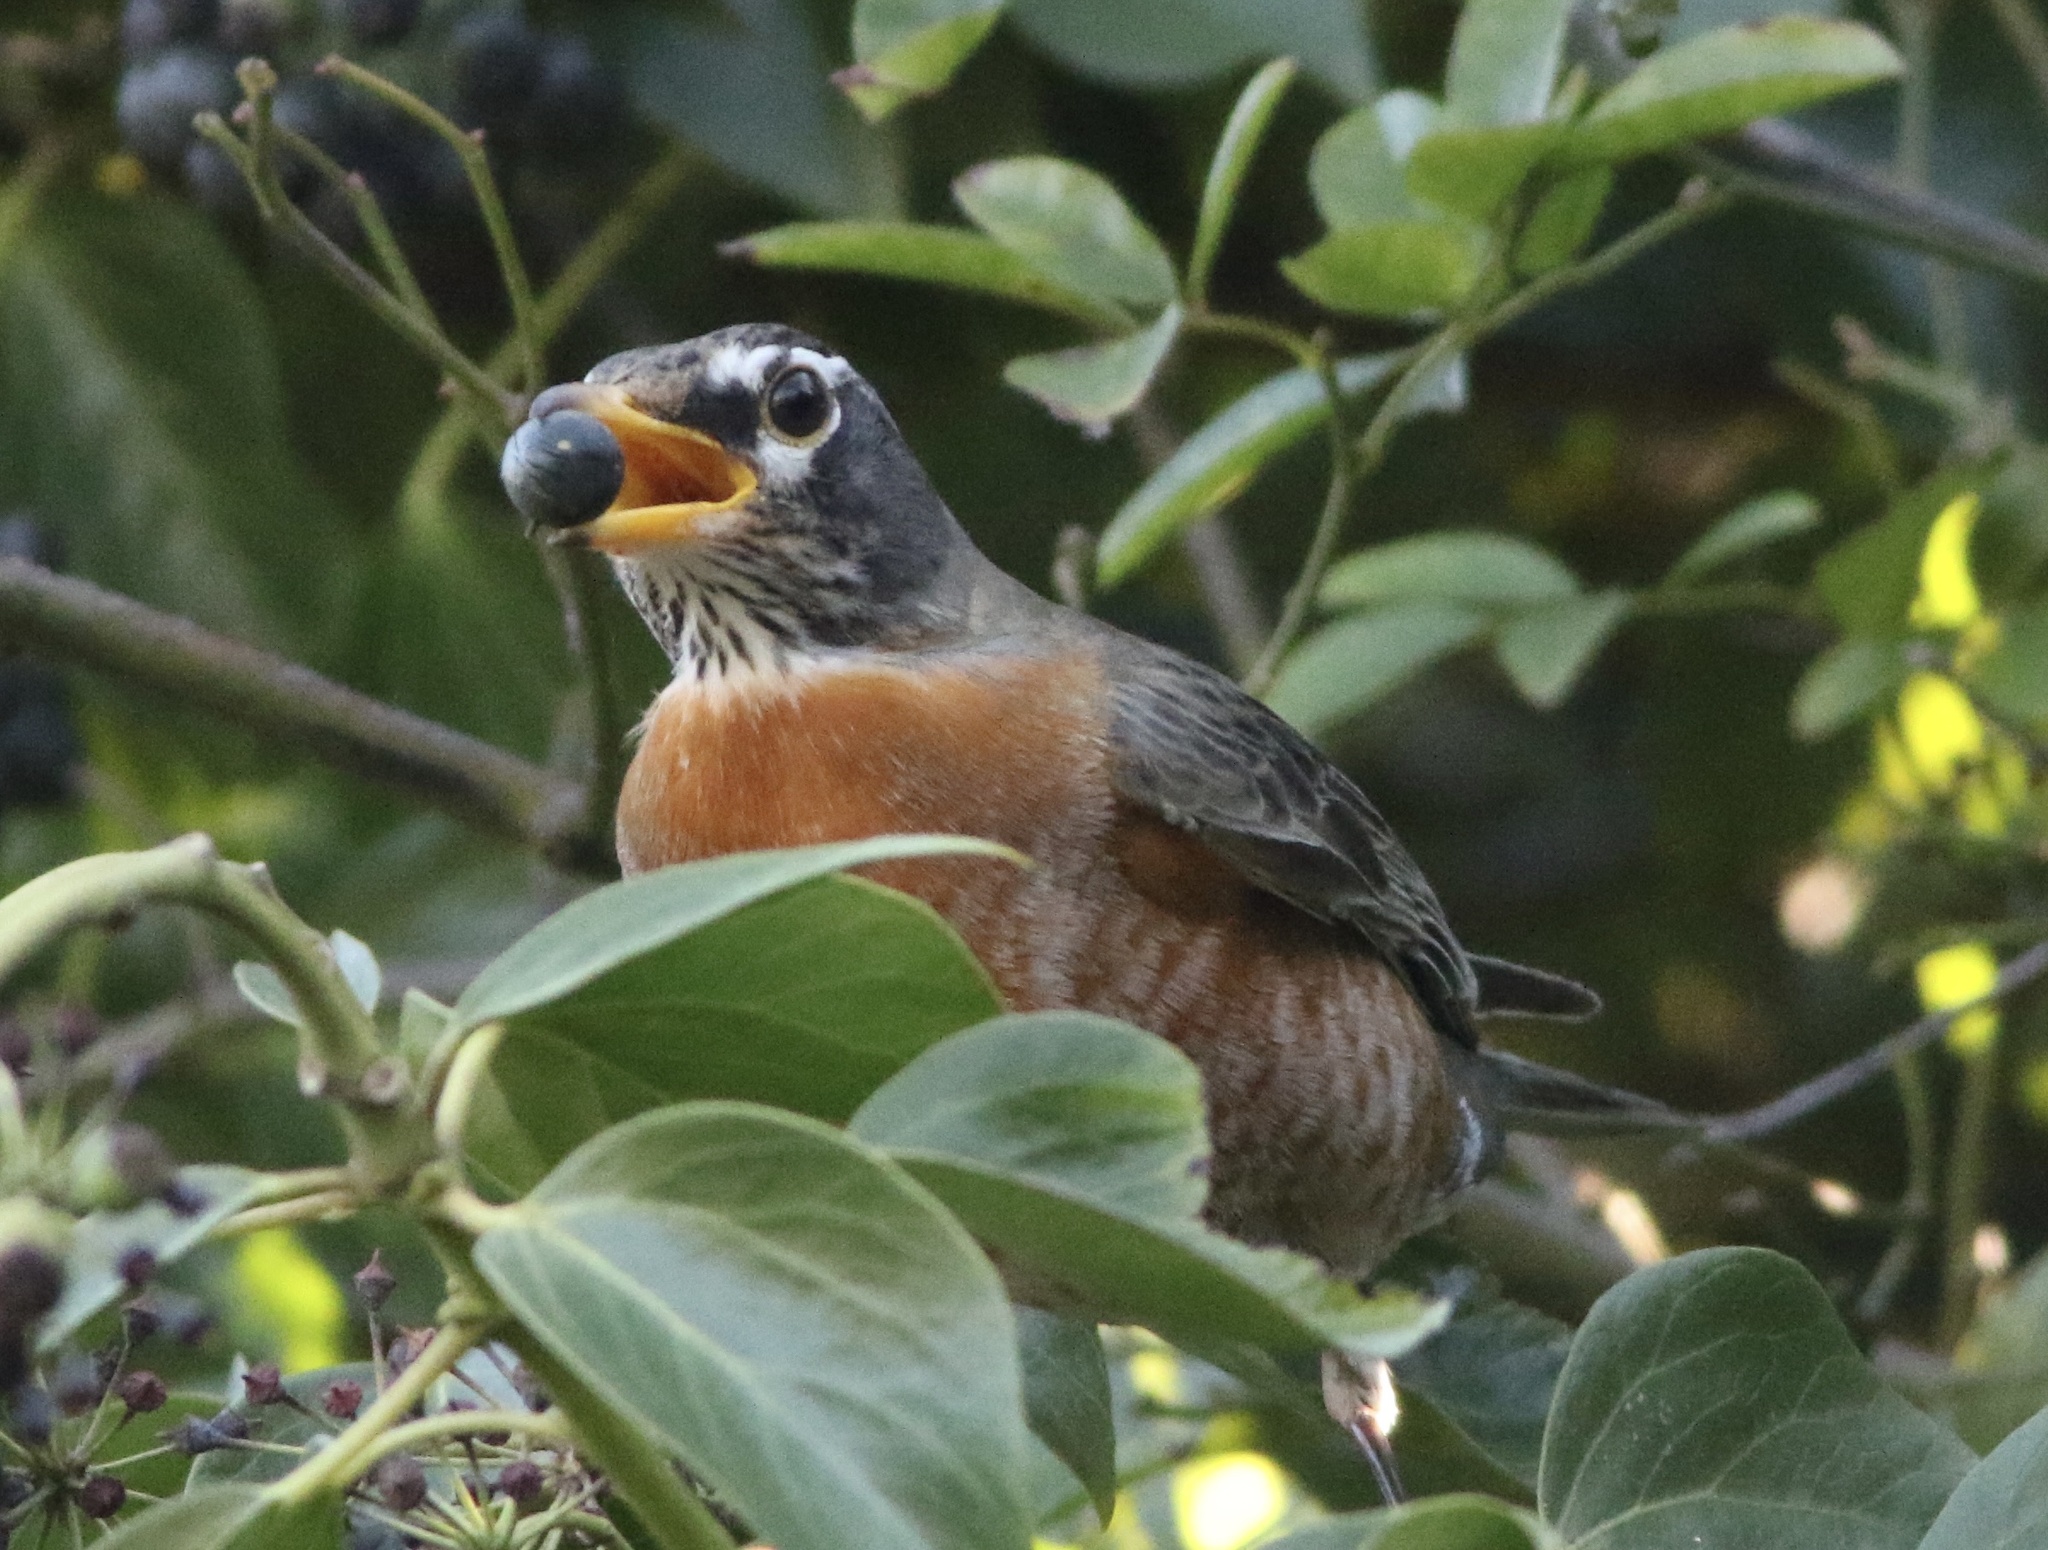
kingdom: Animalia
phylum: Chordata
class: Aves
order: Passeriformes
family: Turdidae
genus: Turdus
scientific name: Turdus migratorius
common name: American robin
